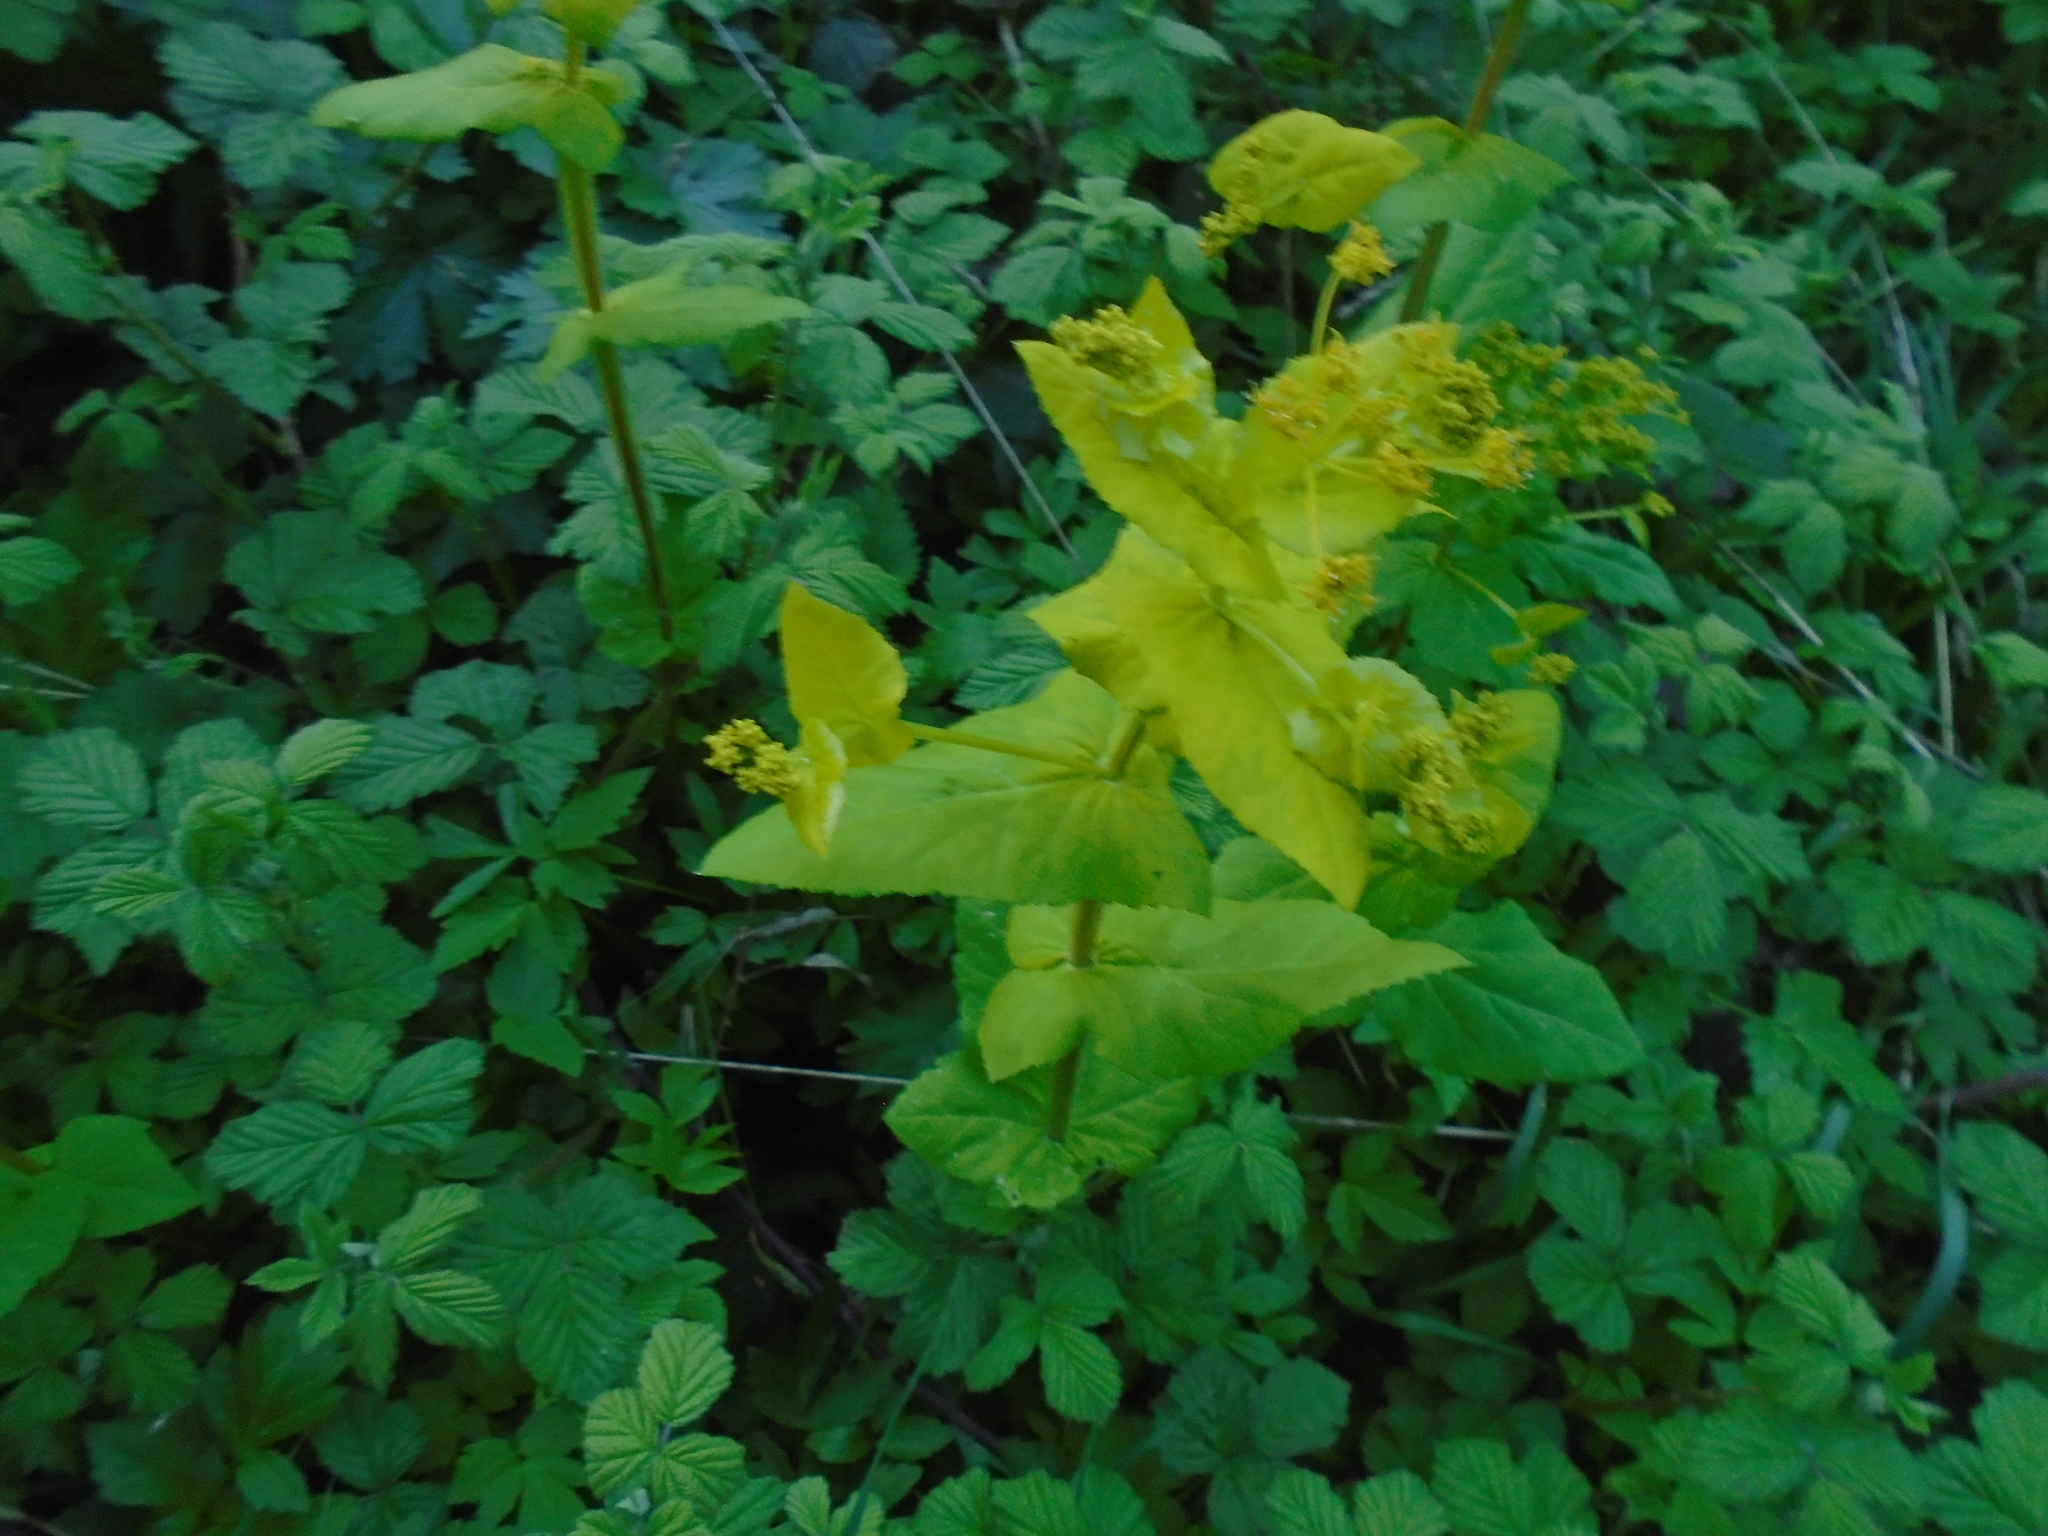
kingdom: Plantae
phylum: Tracheophyta
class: Magnoliopsida
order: Apiales
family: Apiaceae
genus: Smyrnium
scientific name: Smyrnium perfoliatum
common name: Perfoliate alexanders
